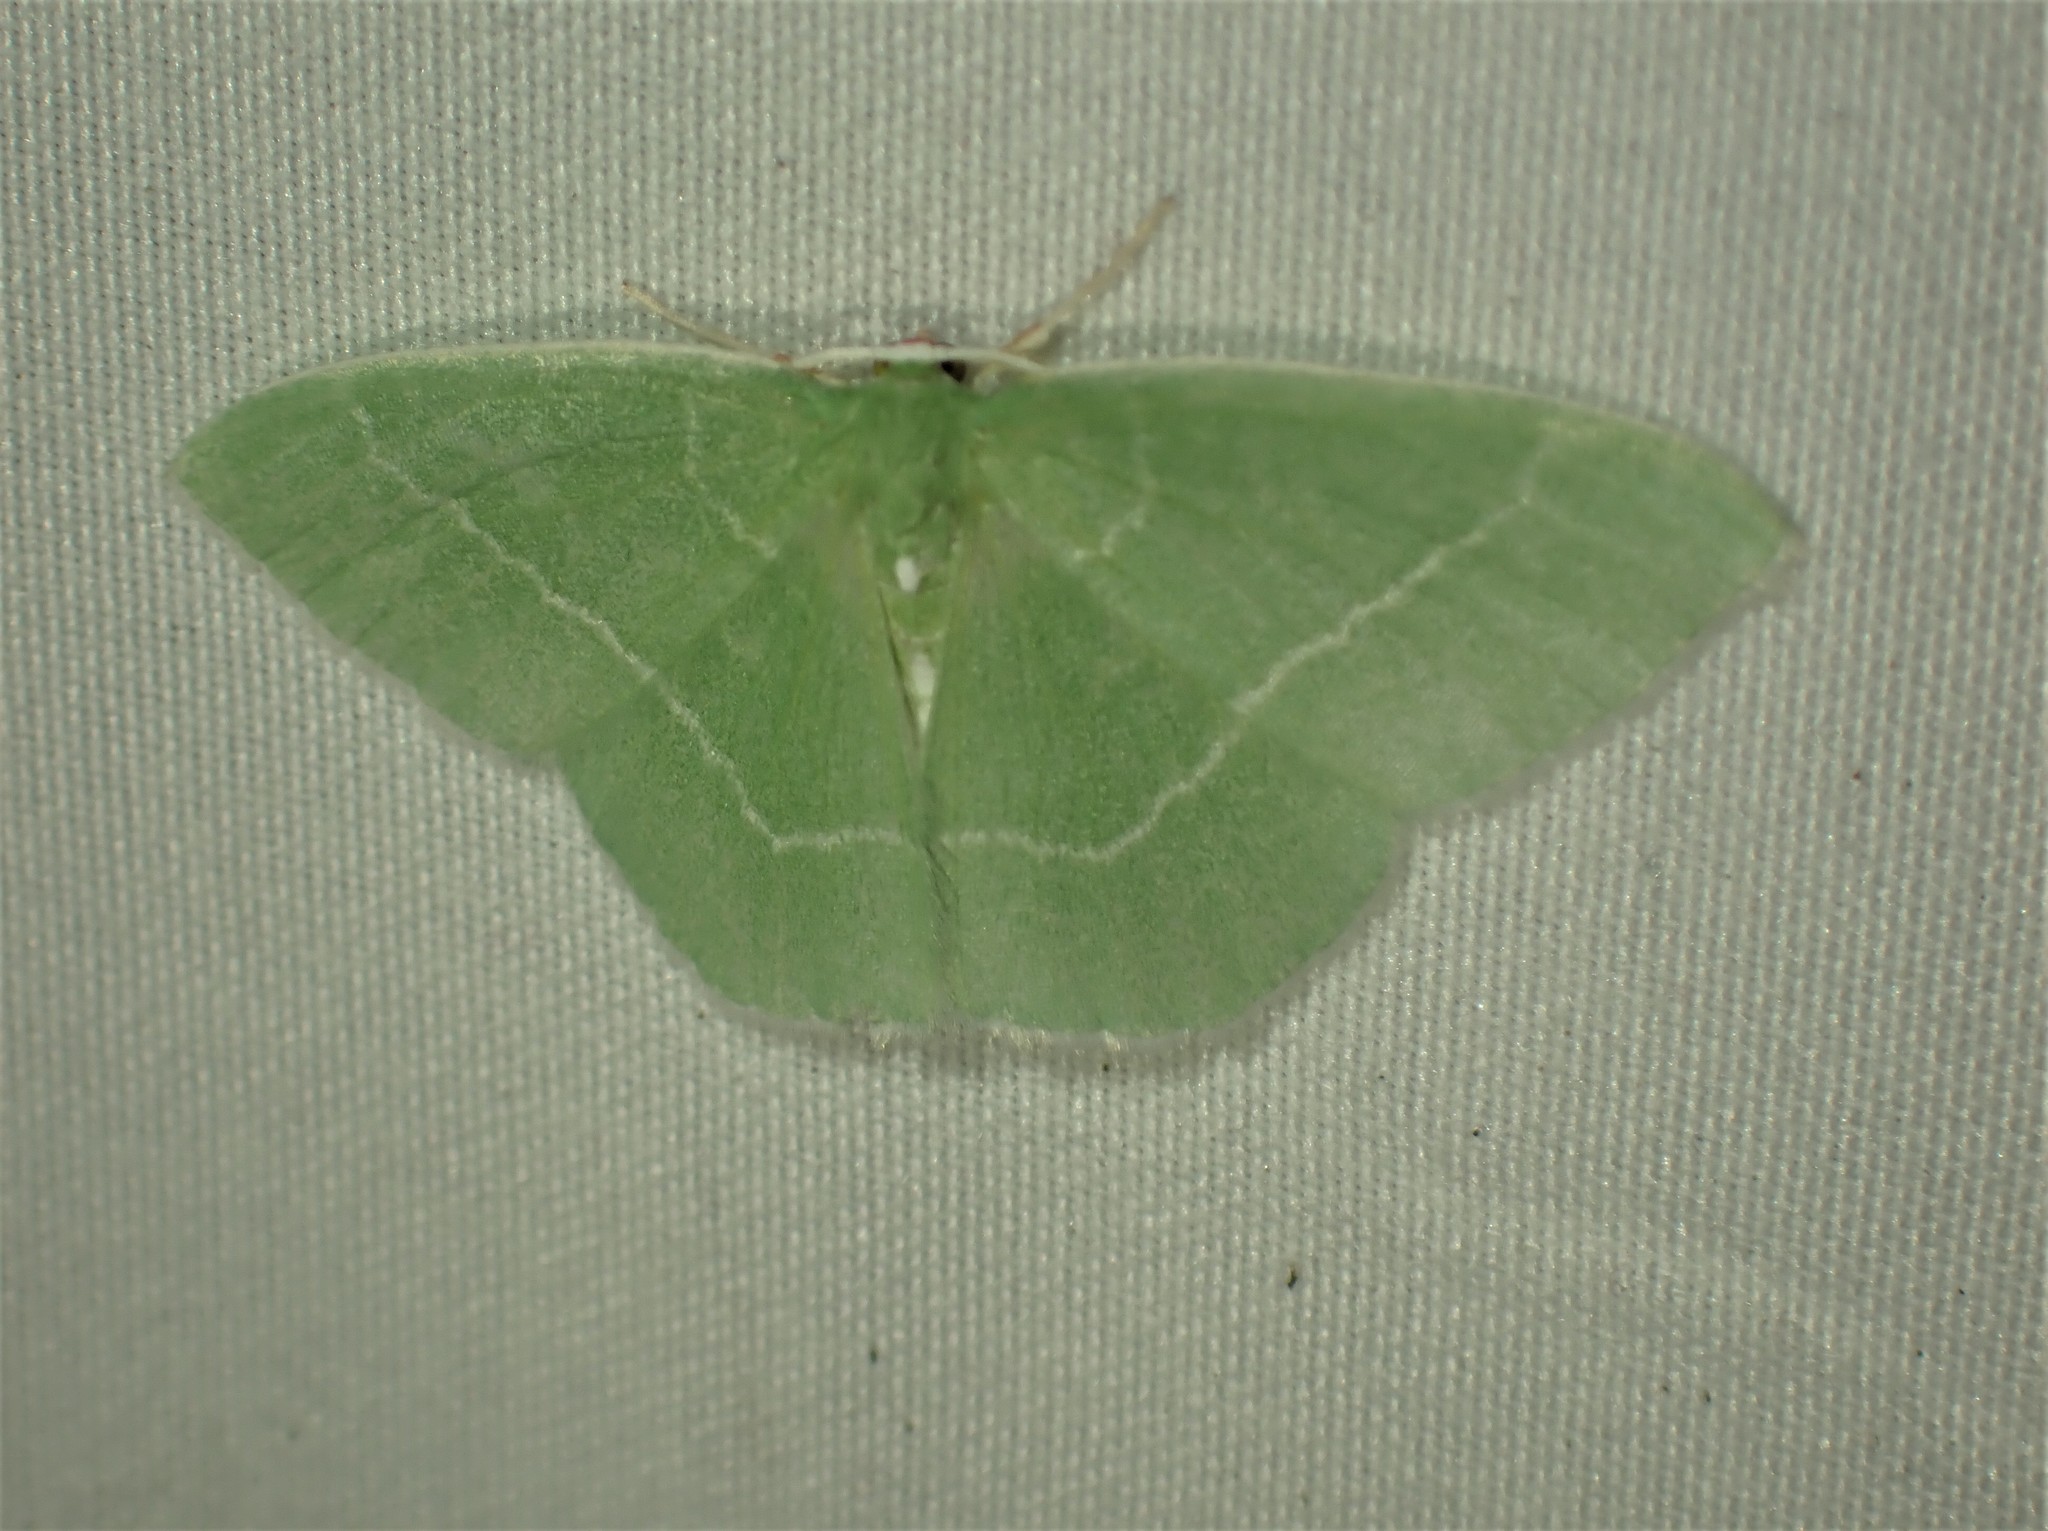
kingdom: Animalia
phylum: Arthropoda
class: Insecta
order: Lepidoptera
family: Geometridae
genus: Nemoria
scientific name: Nemoria mimosaria
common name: White-fringed emerald
